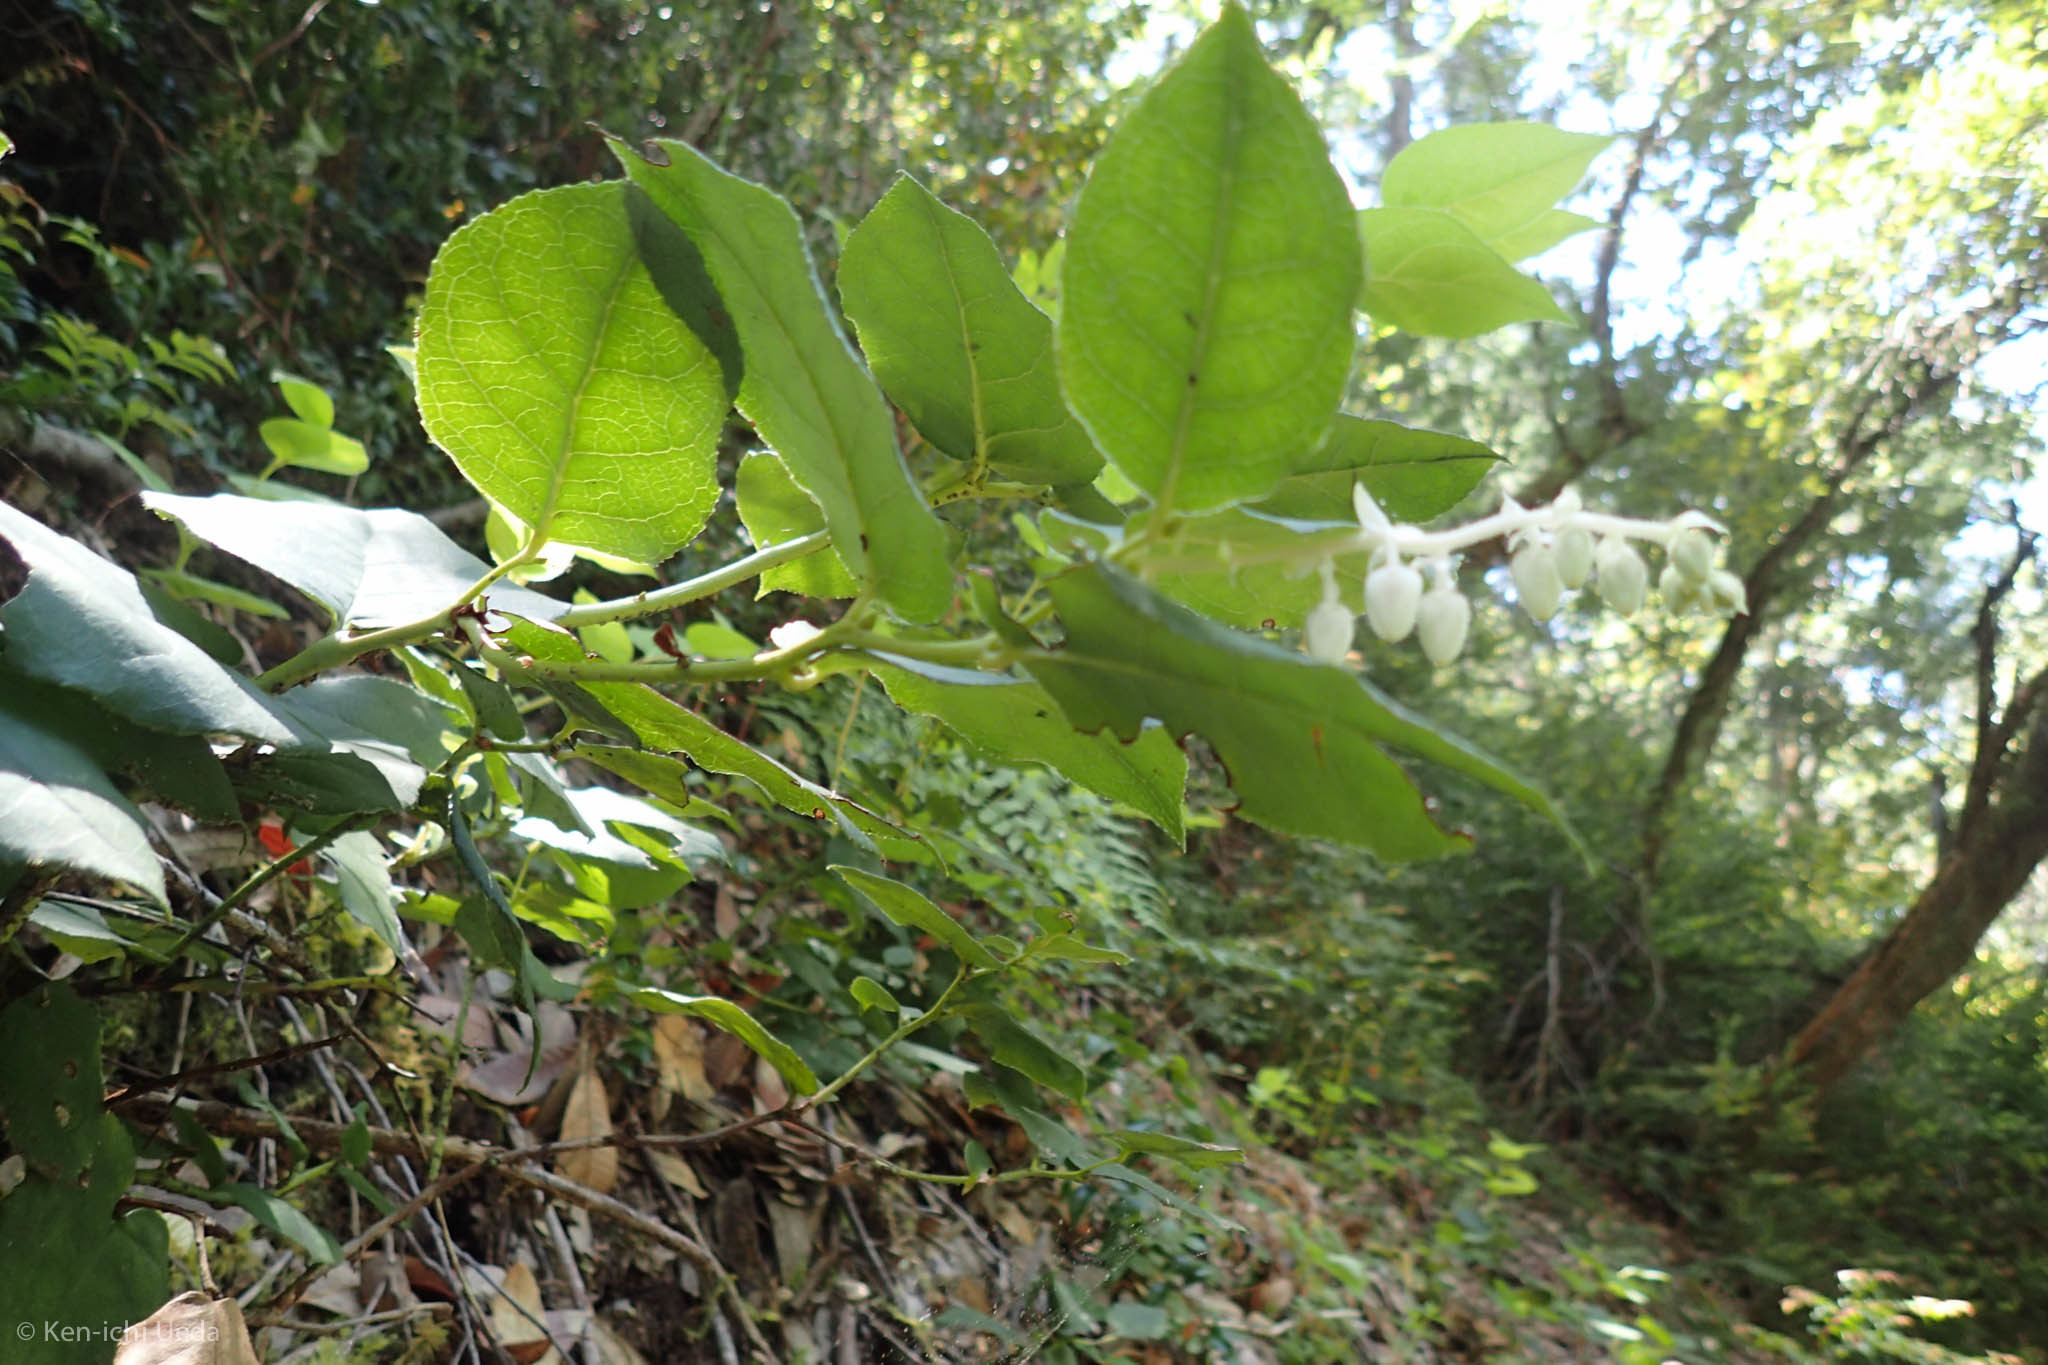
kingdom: Plantae
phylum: Tracheophyta
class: Magnoliopsida
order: Ericales
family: Ericaceae
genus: Gaultheria
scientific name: Gaultheria shallon
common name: Shallon
